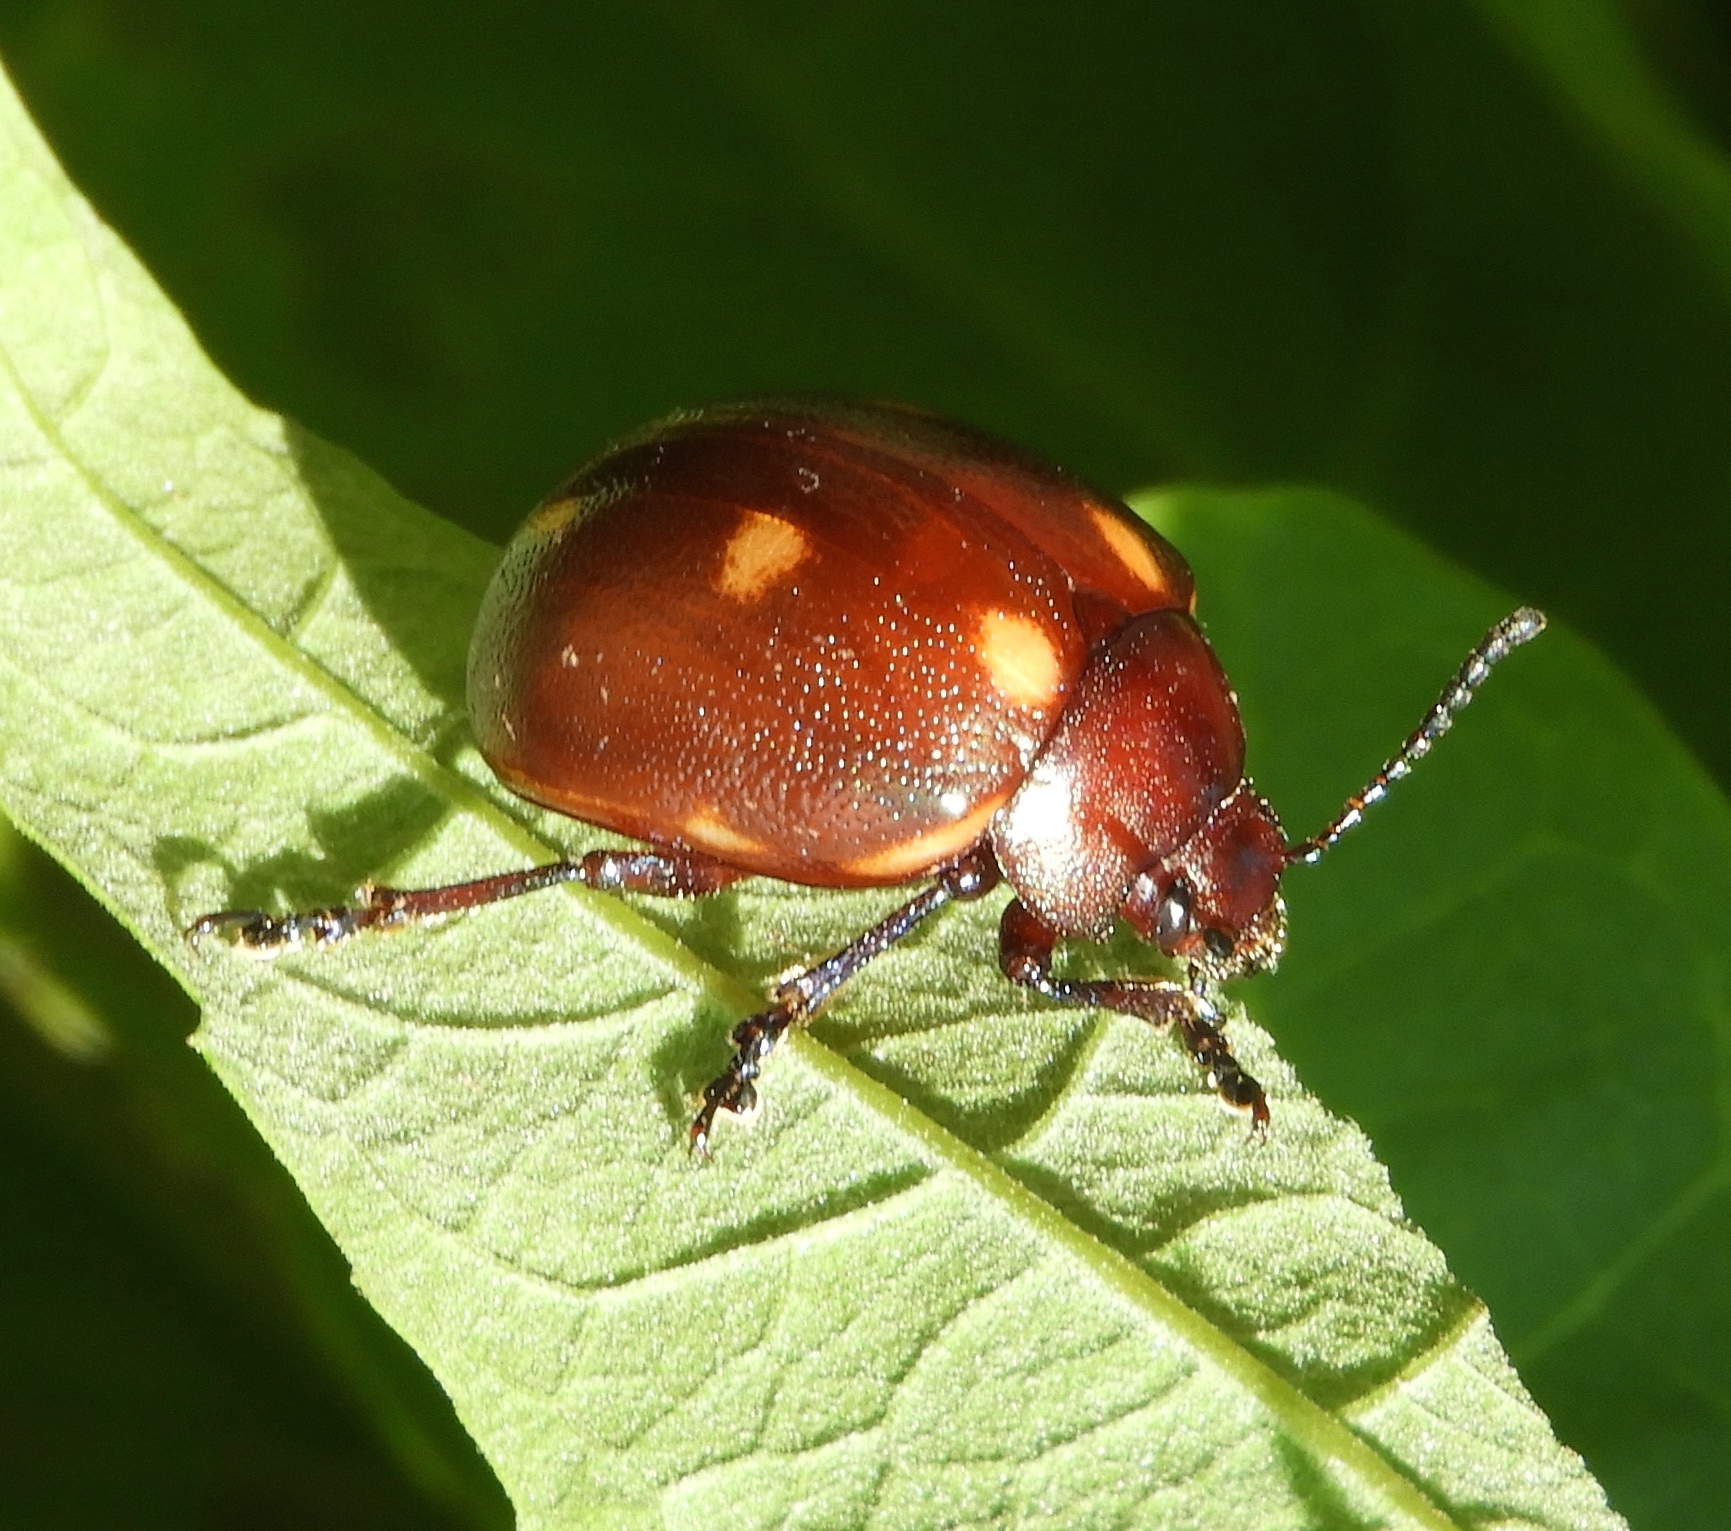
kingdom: Animalia
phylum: Arthropoda
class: Insecta
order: Coleoptera
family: Chrysomelidae
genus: Leptinotarsa
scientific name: Leptinotarsa haldemani
